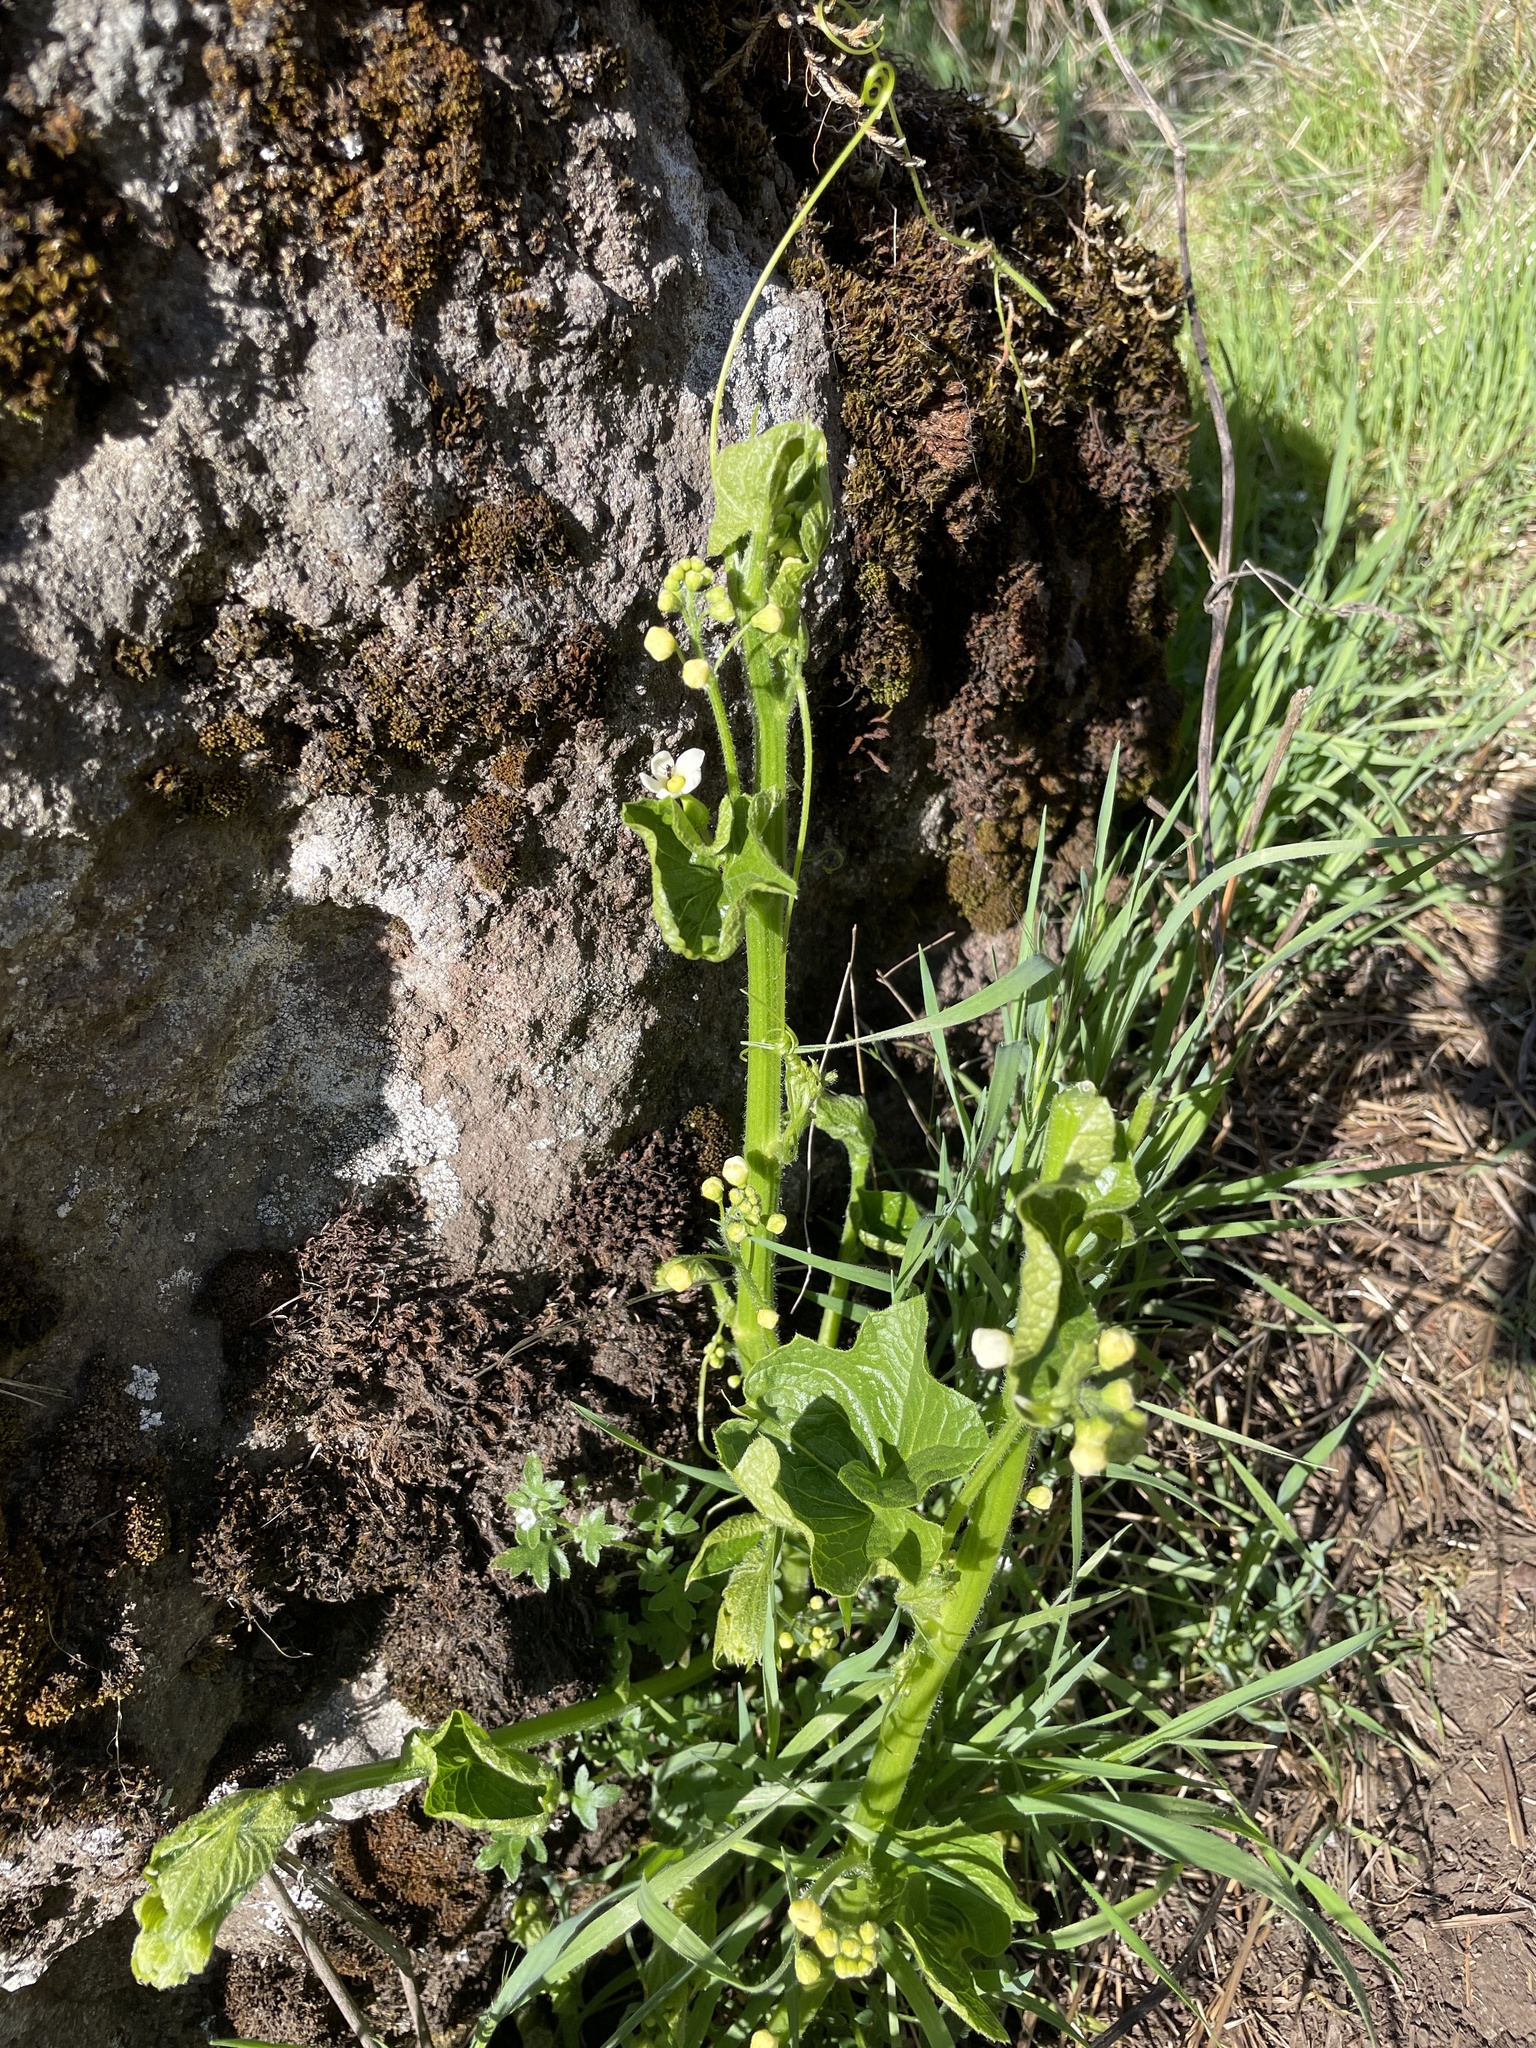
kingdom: Plantae
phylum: Tracheophyta
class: Magnoliopsida
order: Cucurbitales
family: Cucurbitaceae
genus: Marah
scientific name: Marah oregana
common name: Coastal manroot
